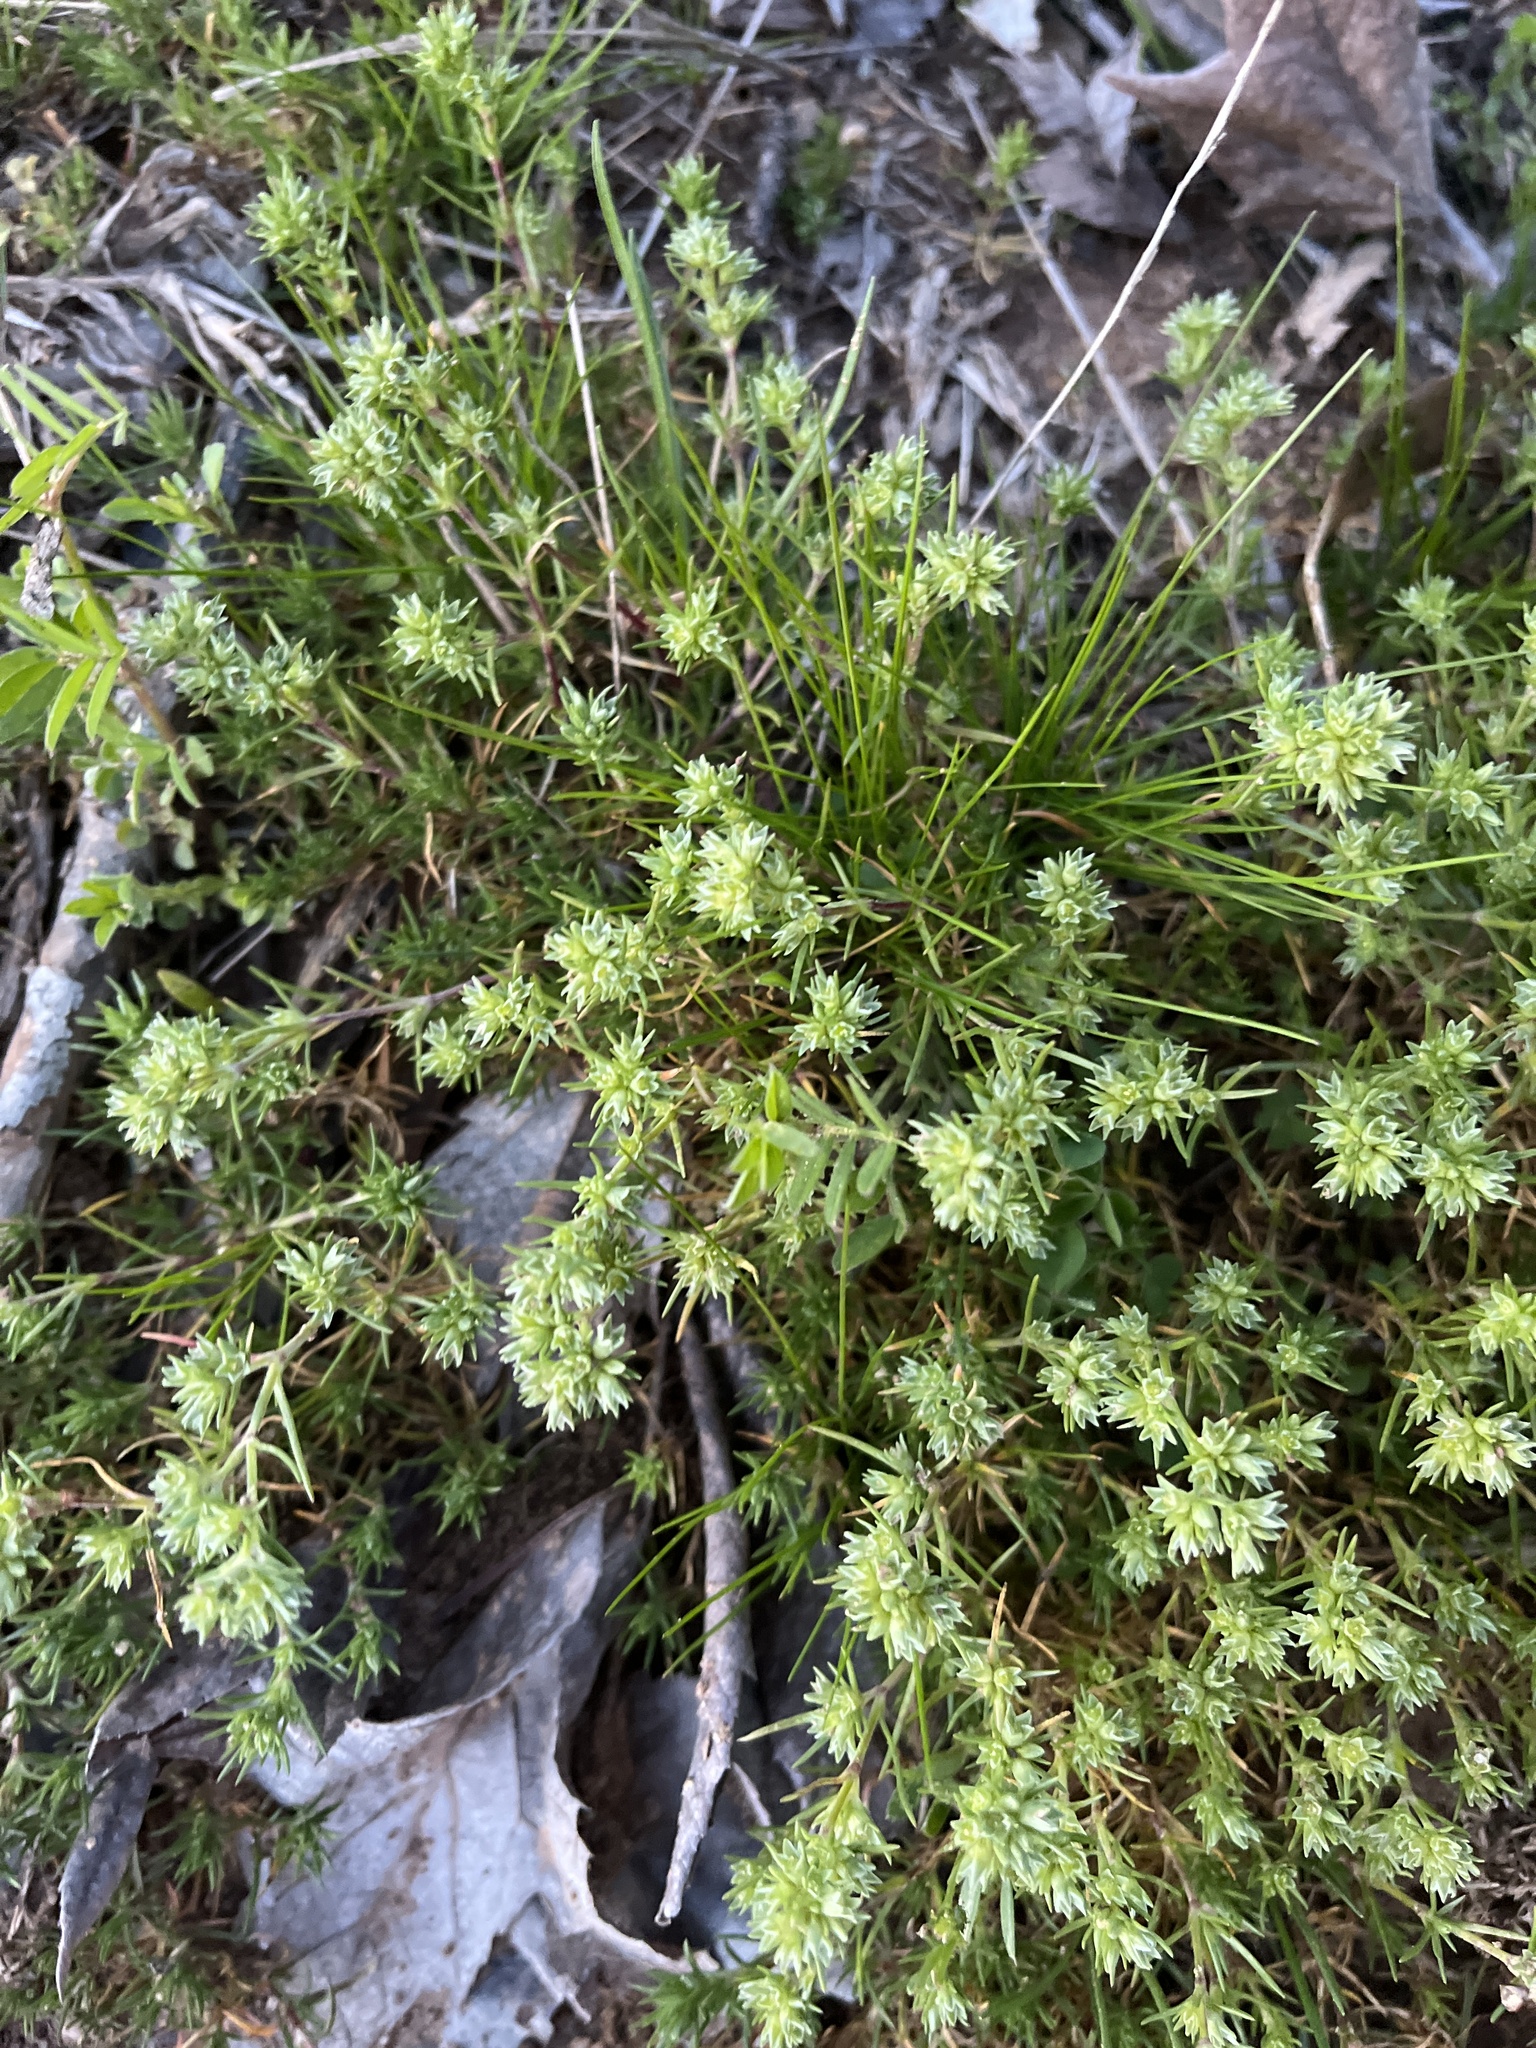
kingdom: Plantae
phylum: Tracheophyta
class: Magnoliopsida
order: Caryophyllales
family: Caryophyllaceae
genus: Scleranthus
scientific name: Scleranthus annuus
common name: Annual knawel
